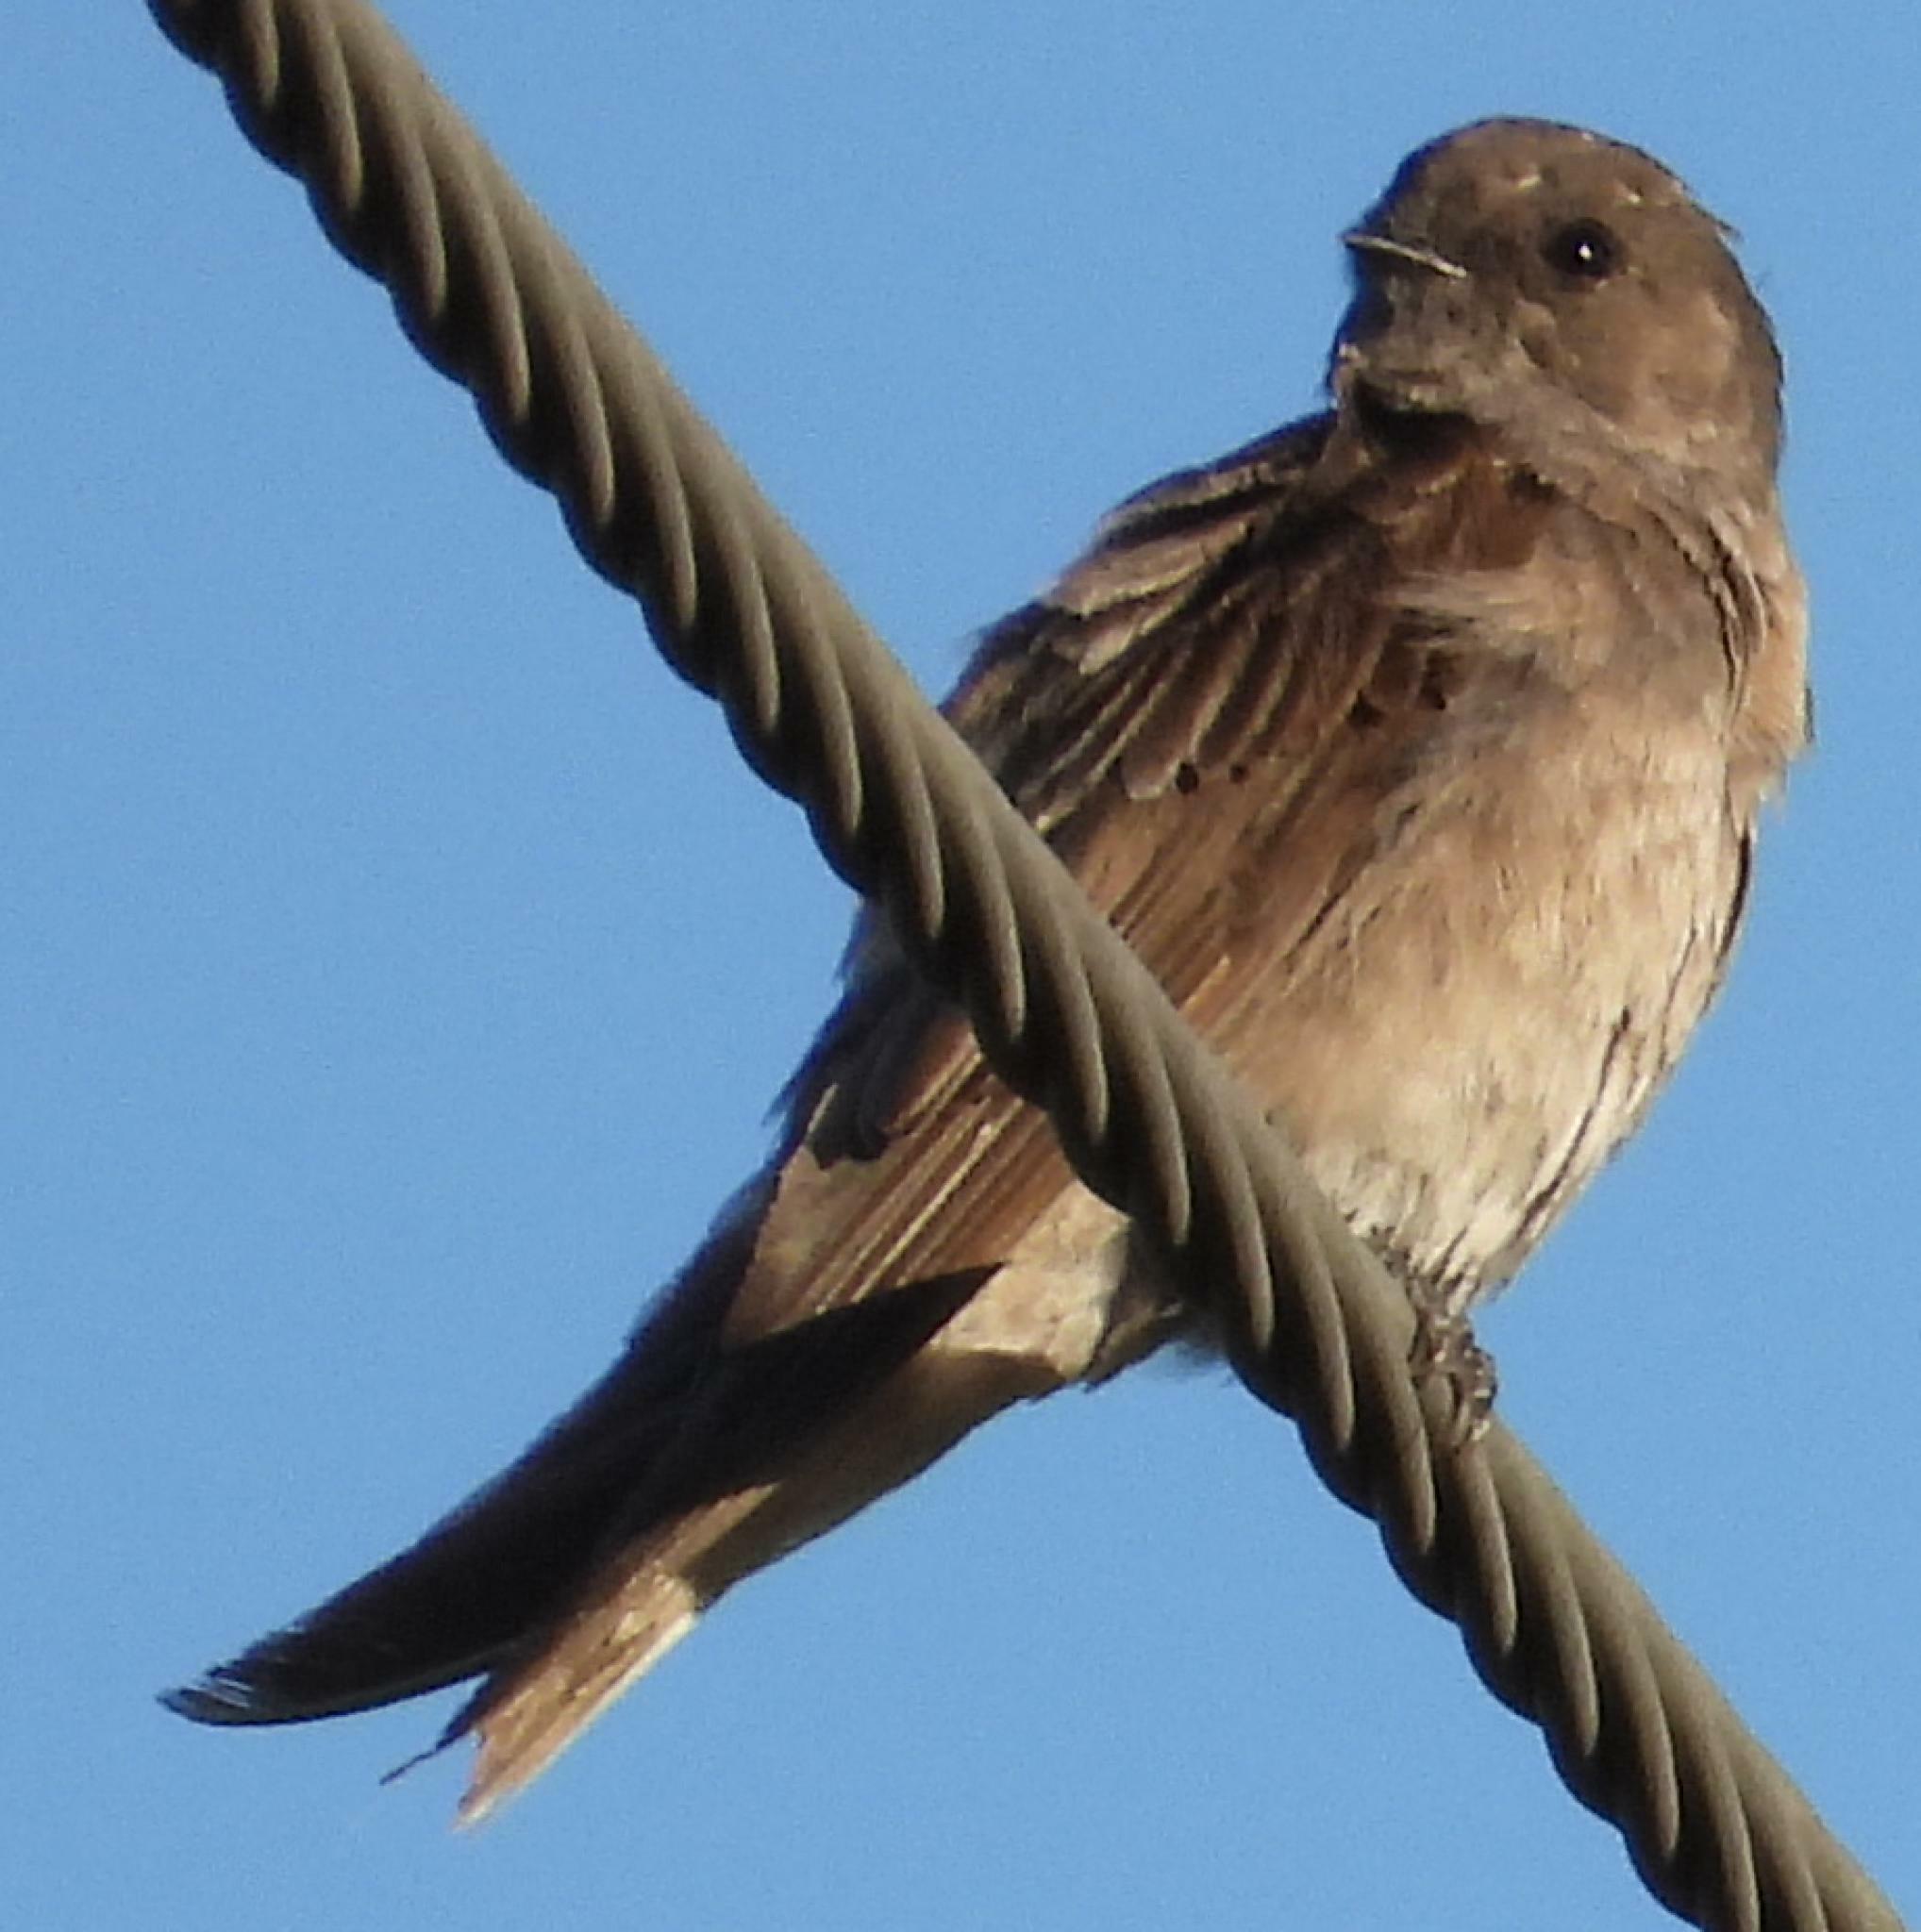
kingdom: Animalia
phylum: Chordata
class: Aves
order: Passeriformes
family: Hirundinidae
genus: Riparia
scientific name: Riparia paludicola
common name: Brown-throated martin
